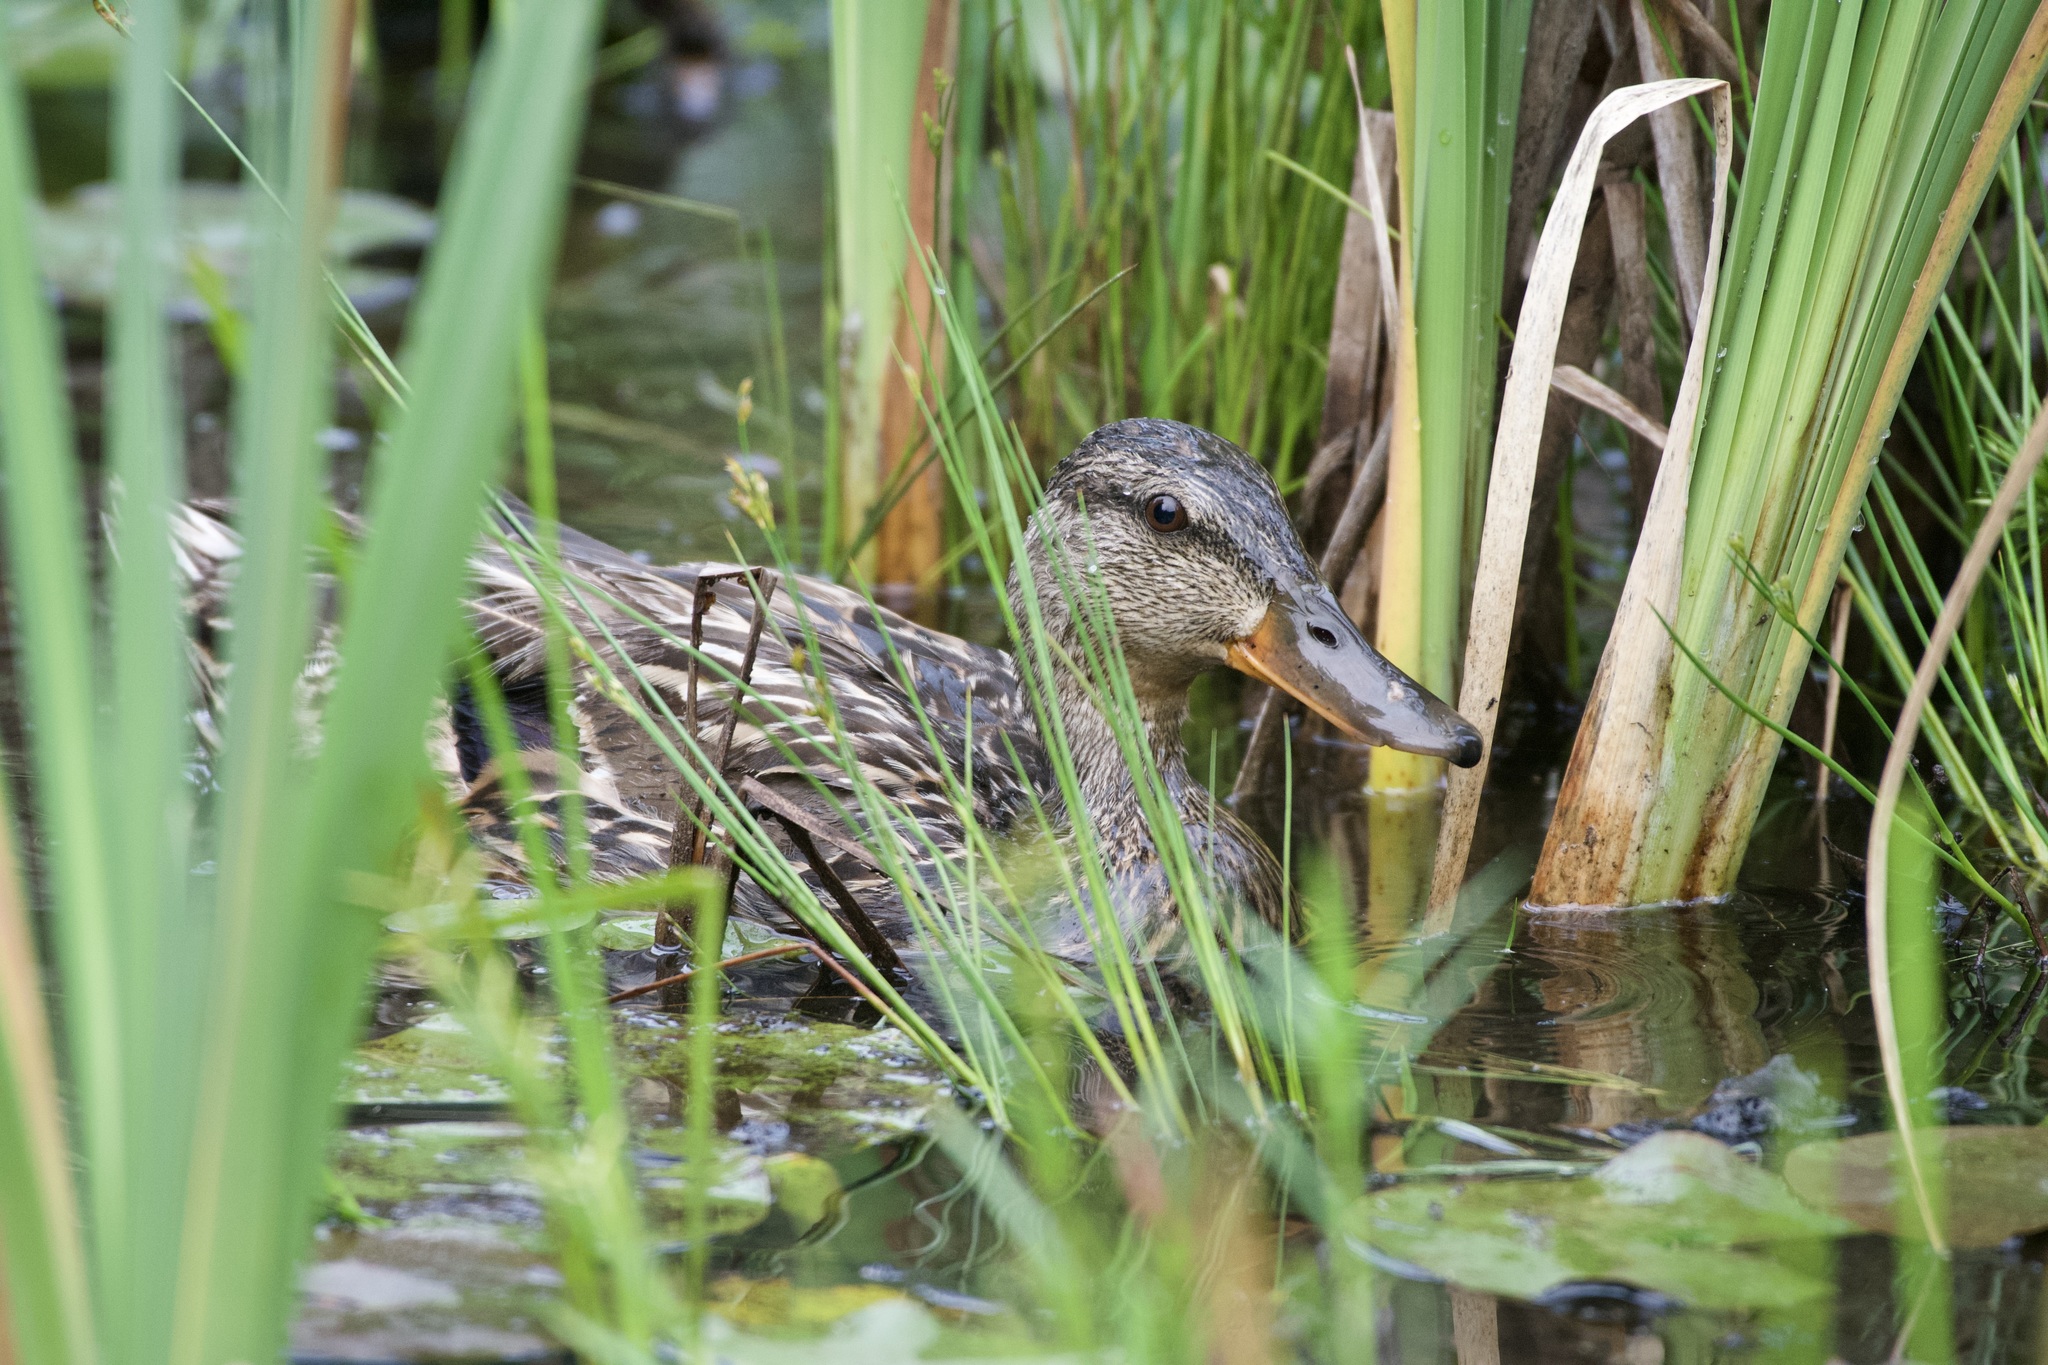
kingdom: Animalia
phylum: Chordata
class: Aves
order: Anseriformes
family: Anatidae
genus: Anas
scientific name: Anas platyrhynchos
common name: Mallard
